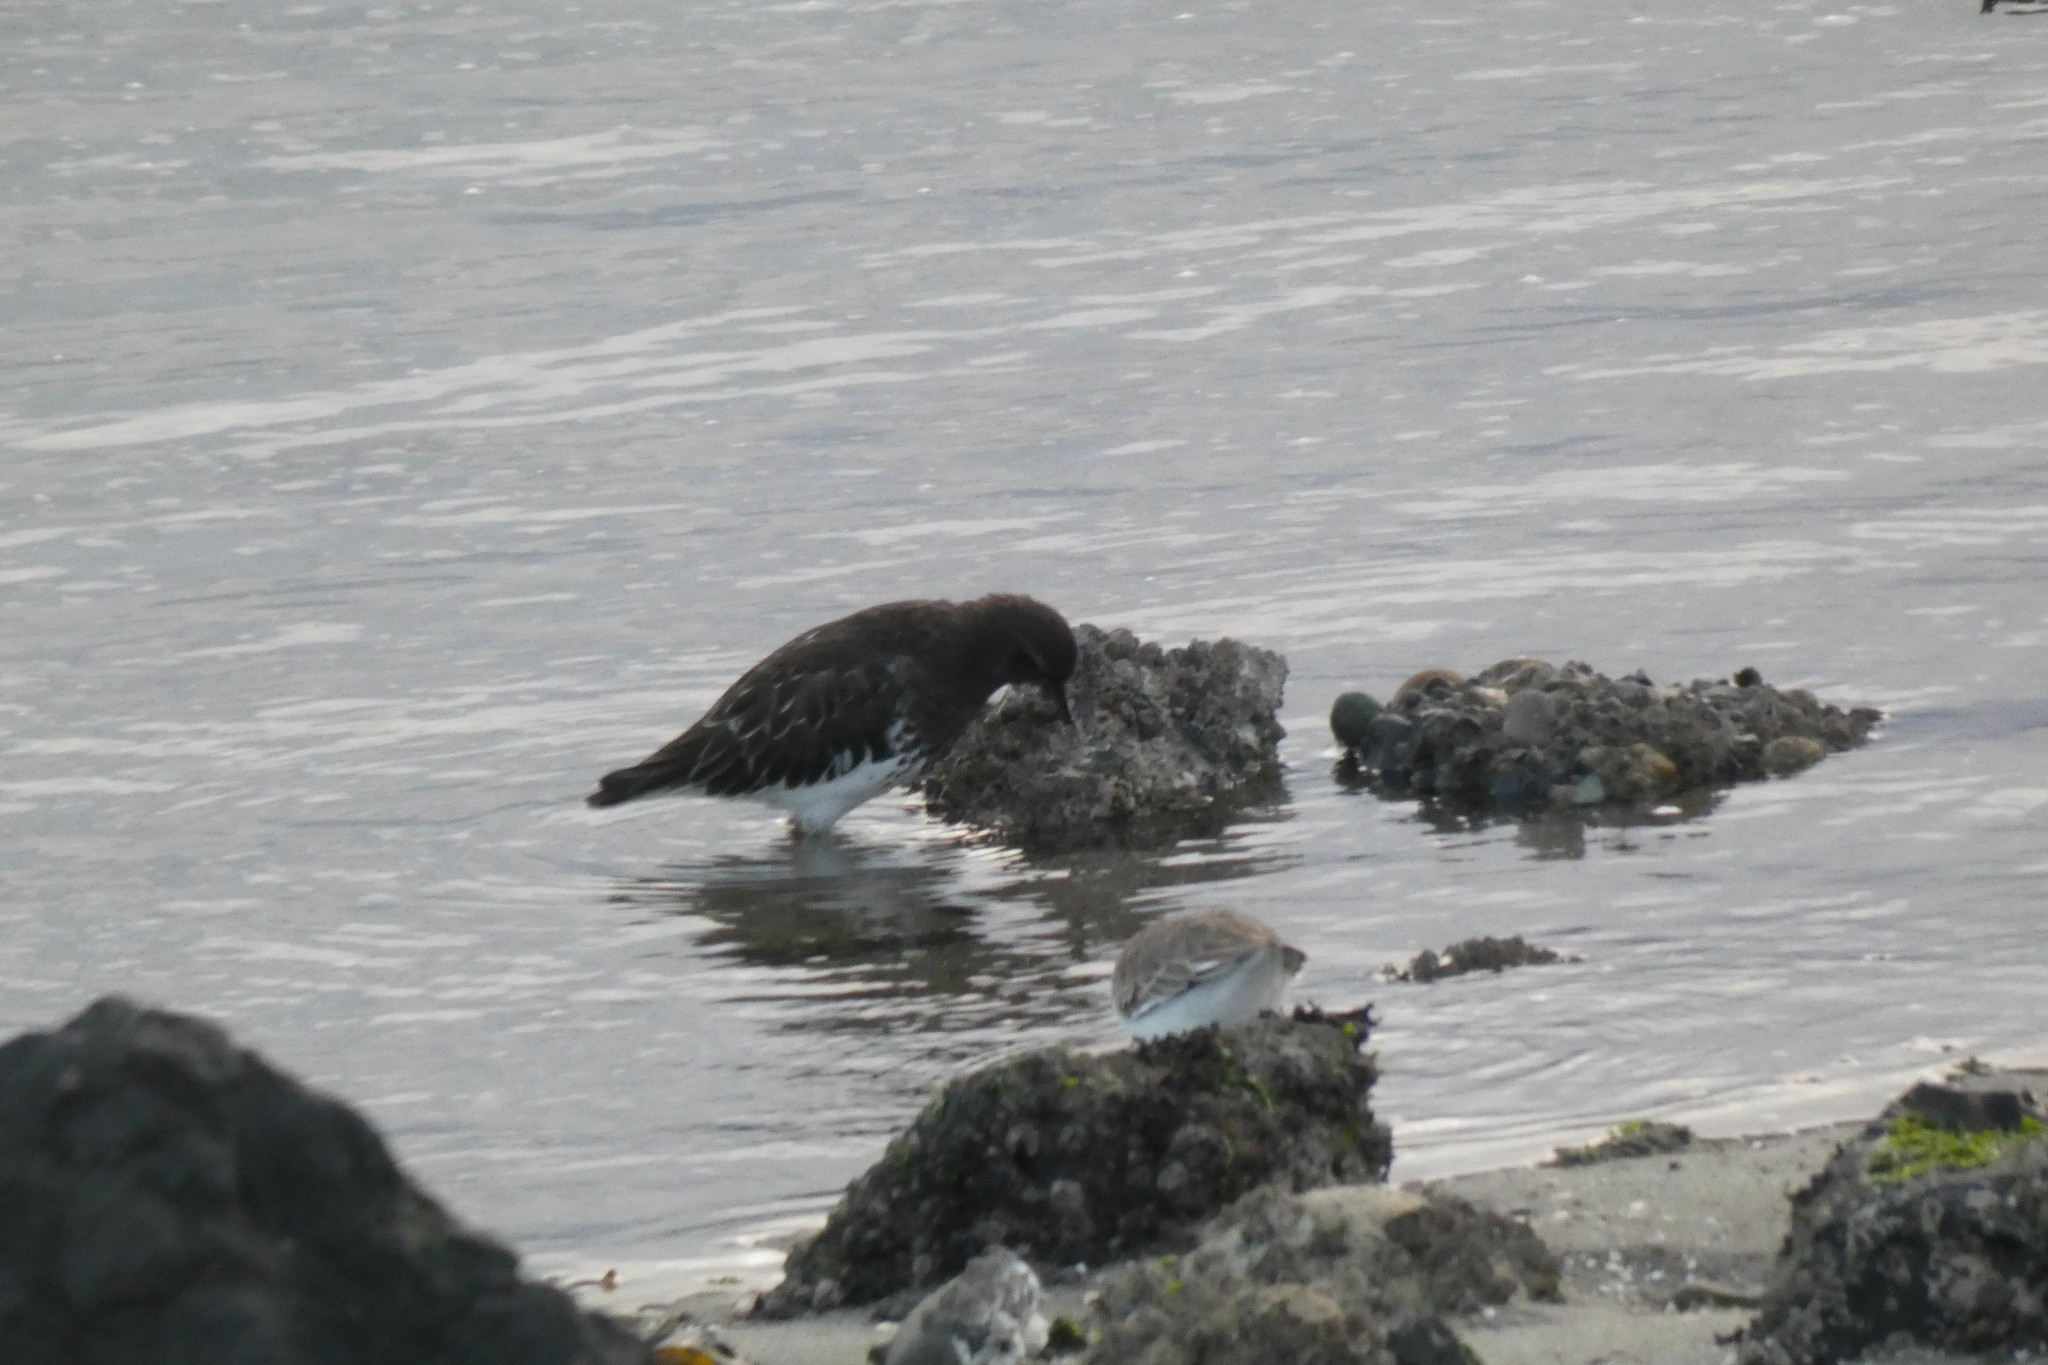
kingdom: Animalia
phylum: Chordata
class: Aves
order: Charadriiformes
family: Scolopacidae
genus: Arenaria
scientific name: Arenaria melanocephala
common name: Black turnstone
